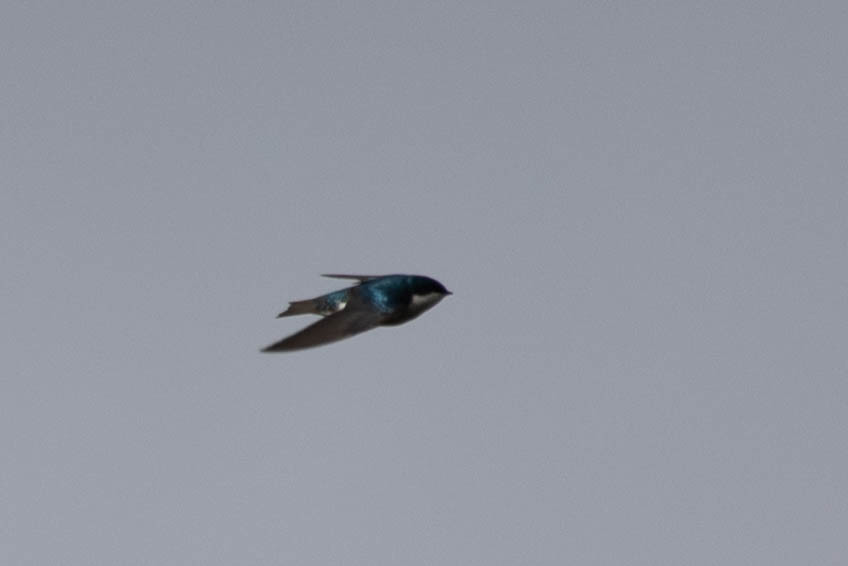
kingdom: Animalia
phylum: Chordata
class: Aves
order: Passeriformes
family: Hirundinidae
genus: Tachycineta
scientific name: Tachycineta bicolor
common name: Tree swallow
